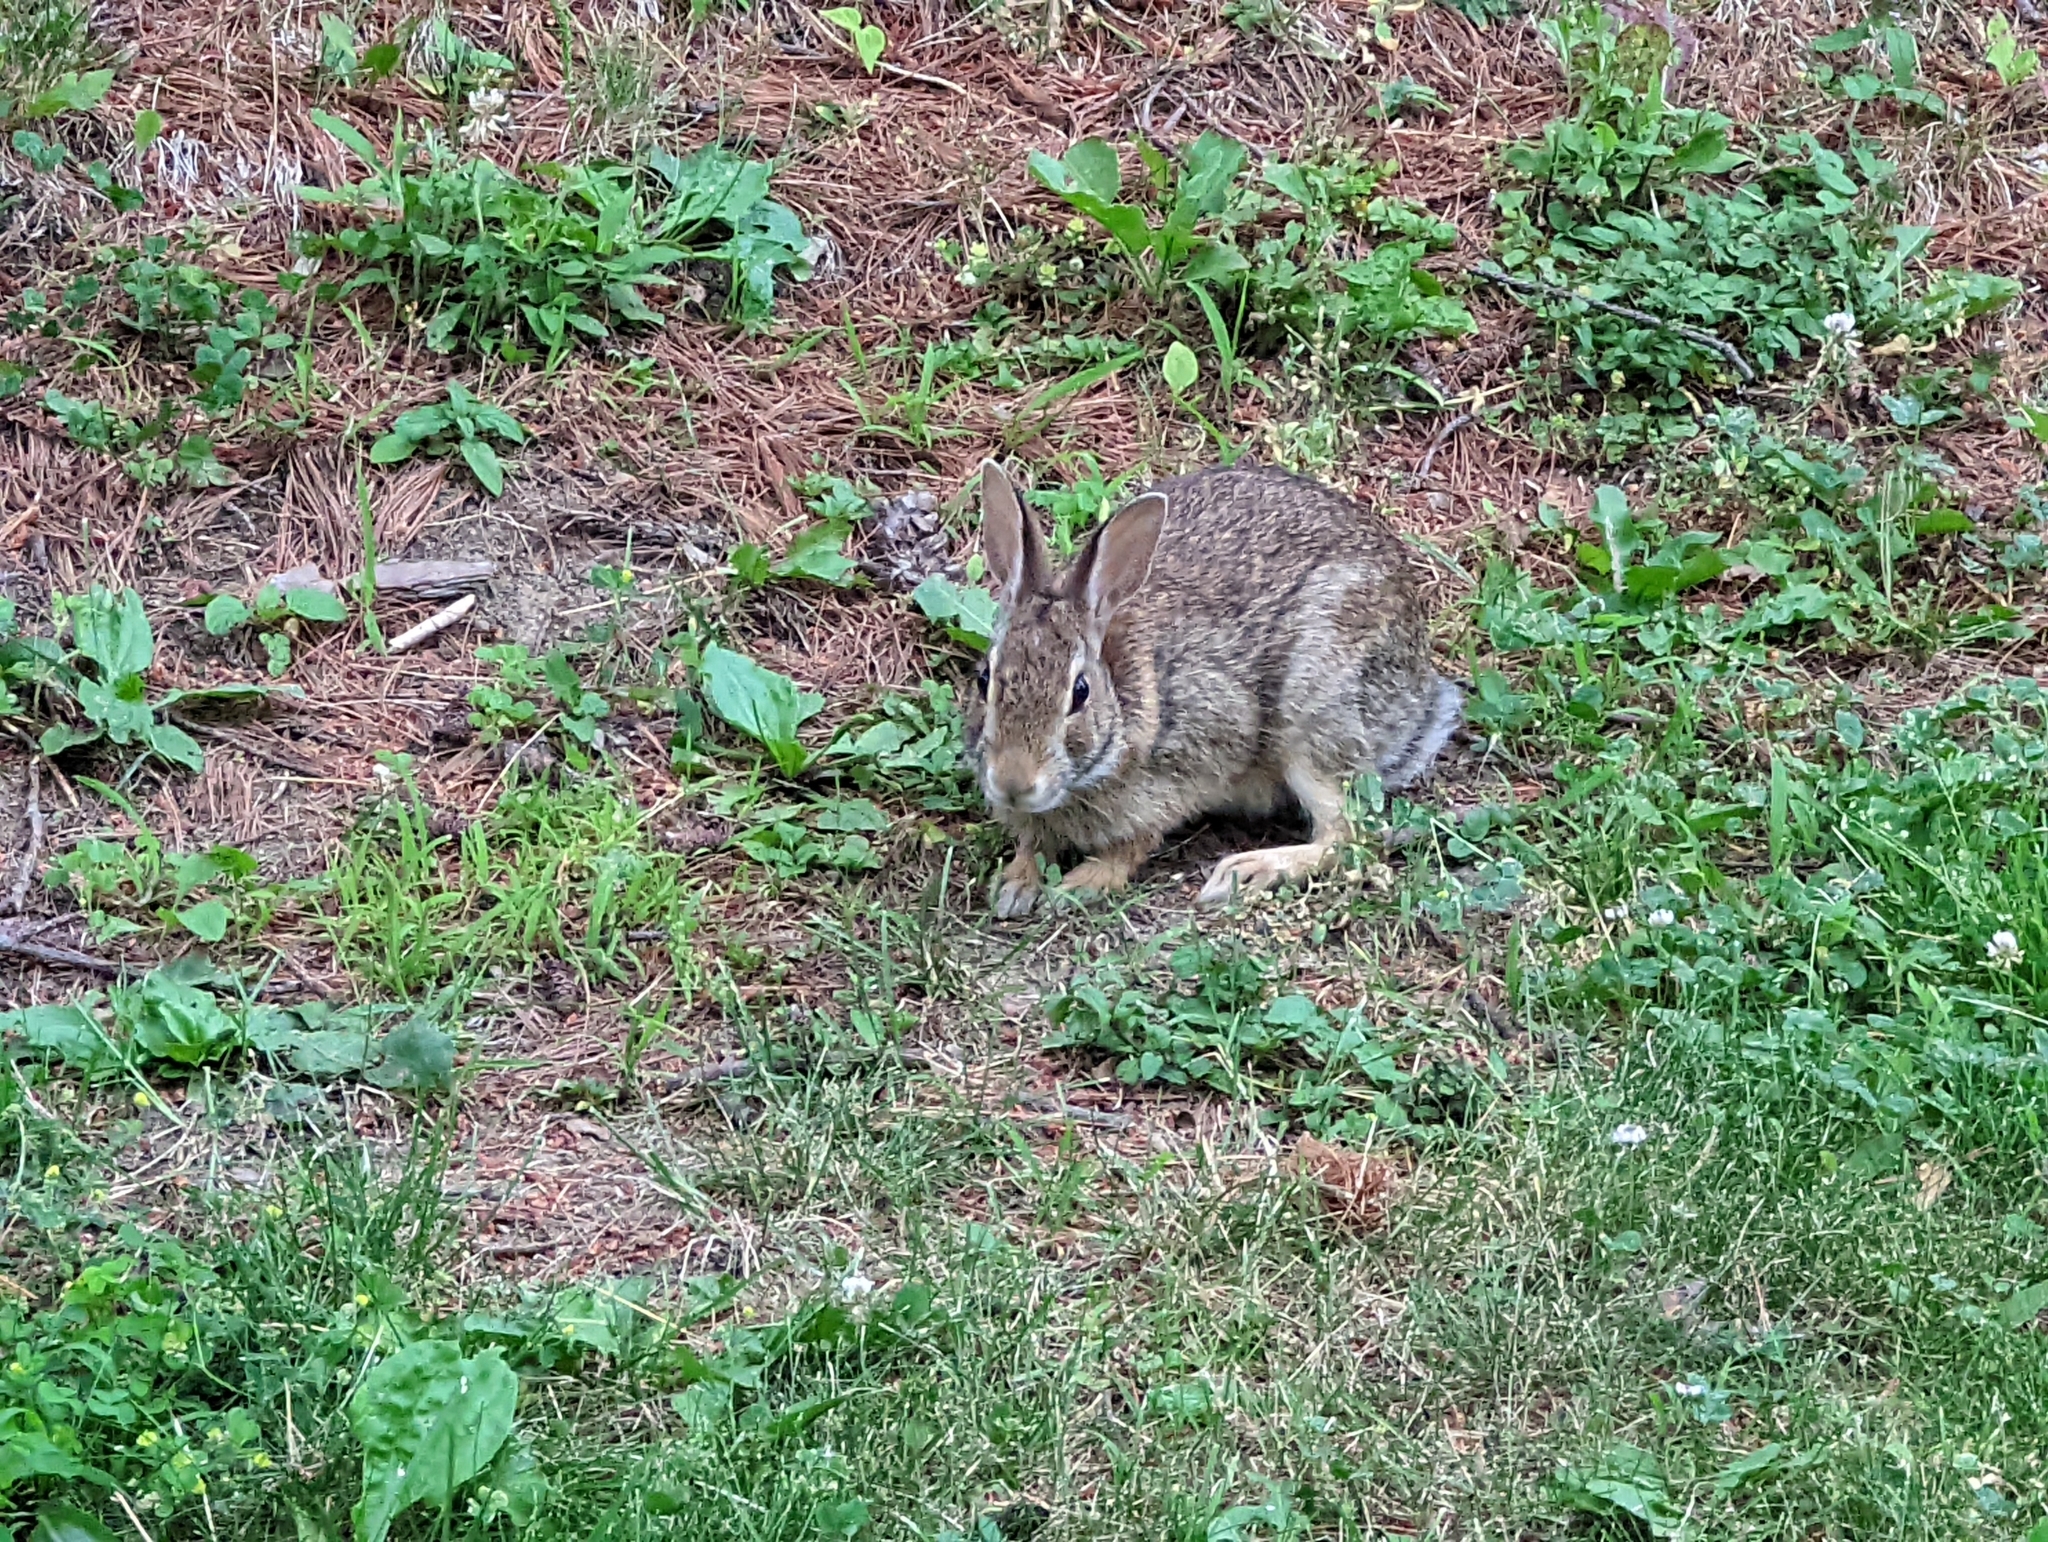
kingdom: Animalia
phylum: Chordata
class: Mammalia
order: Lagomorpha
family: Leporidae
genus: Sylvilagus
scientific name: Sylvilagus floridanus
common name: Eastern cottontail
